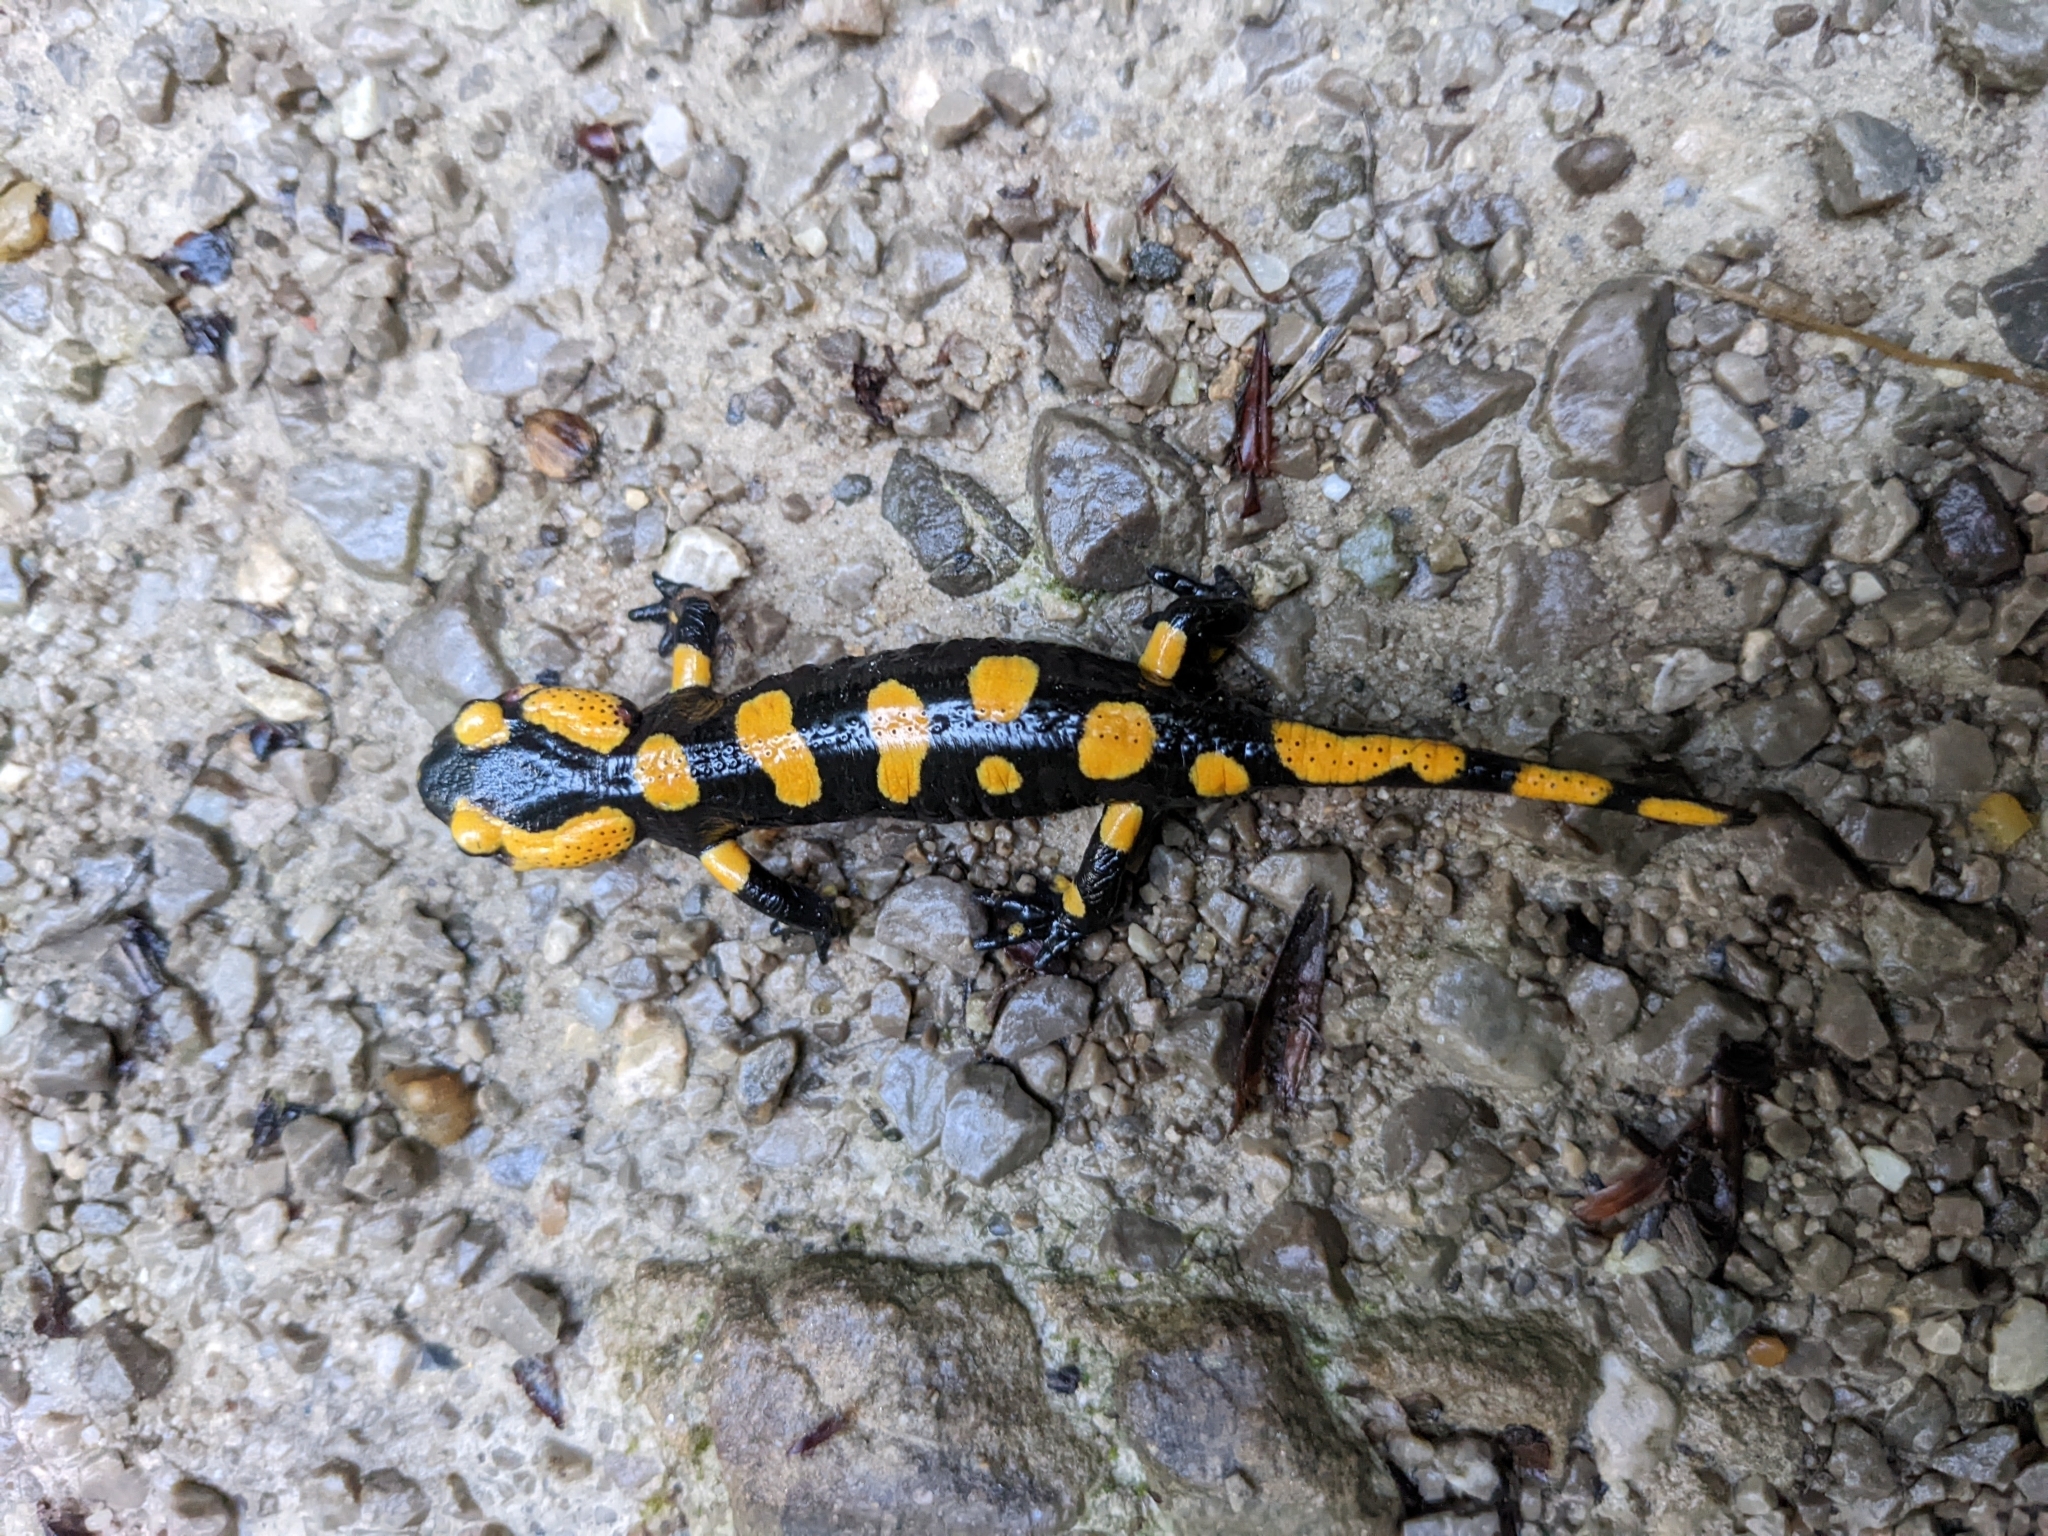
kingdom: Animalia
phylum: Chordata
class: Amphibia
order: Caudata
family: Salamandridae
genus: Salamandra
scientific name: Salamandra salamandra
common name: Fire salamander
